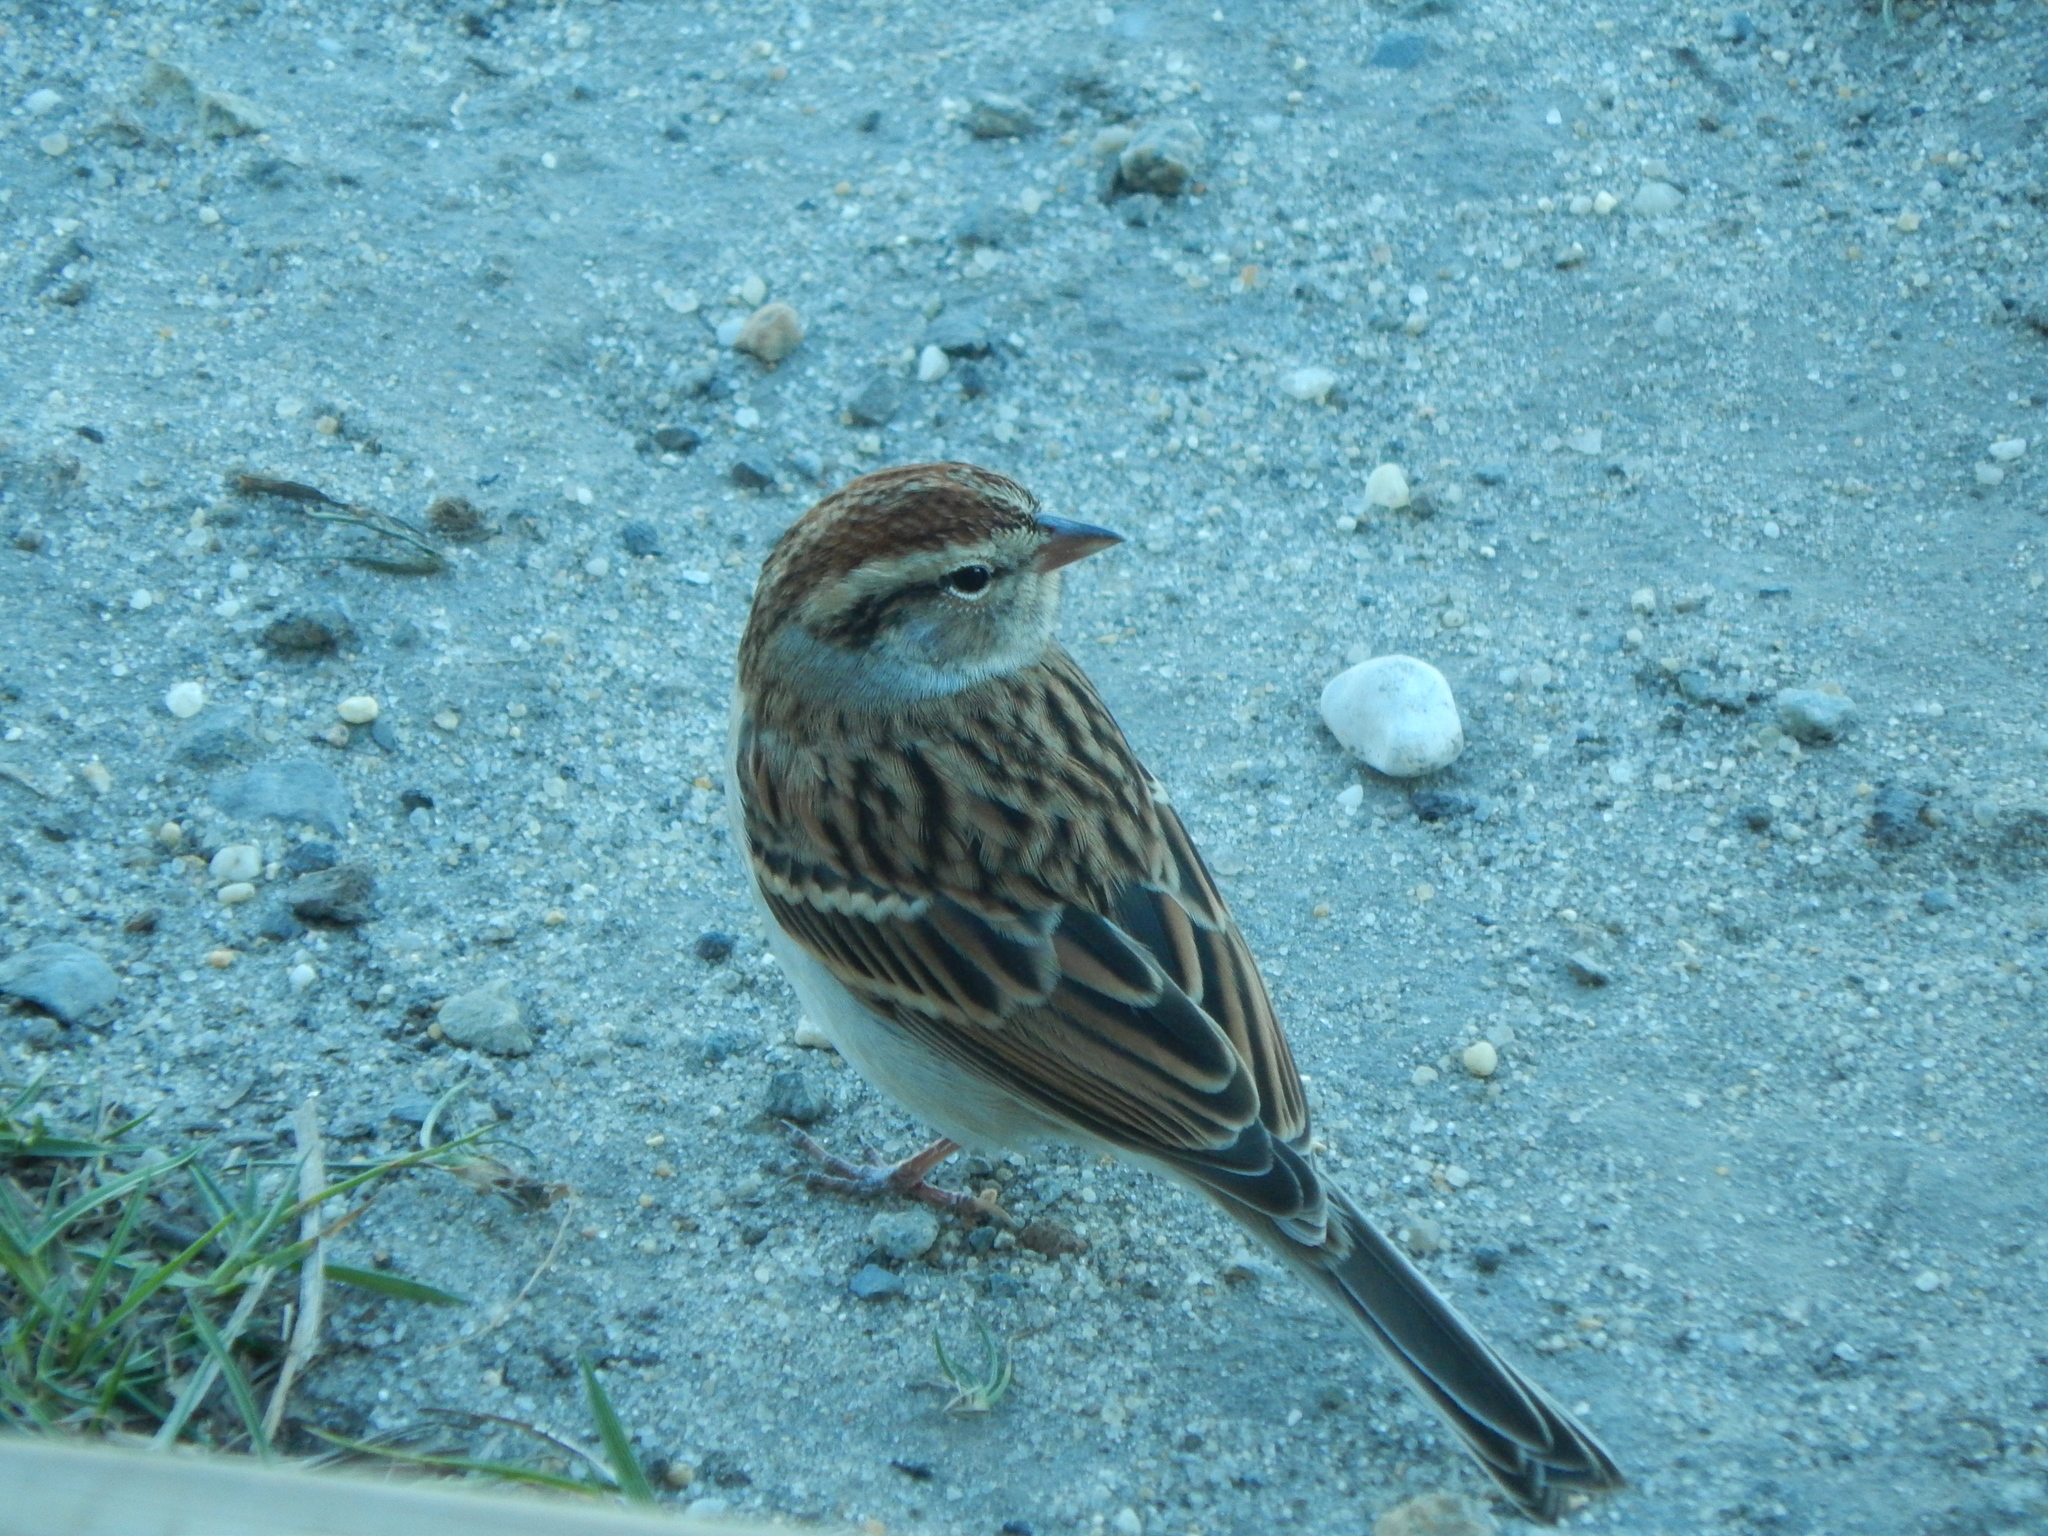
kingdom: Animalia
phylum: Chordata
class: Aves
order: Passeriformes
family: Passerellidae
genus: Spizella
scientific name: Spizella passerina
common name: Chipping sparrow
